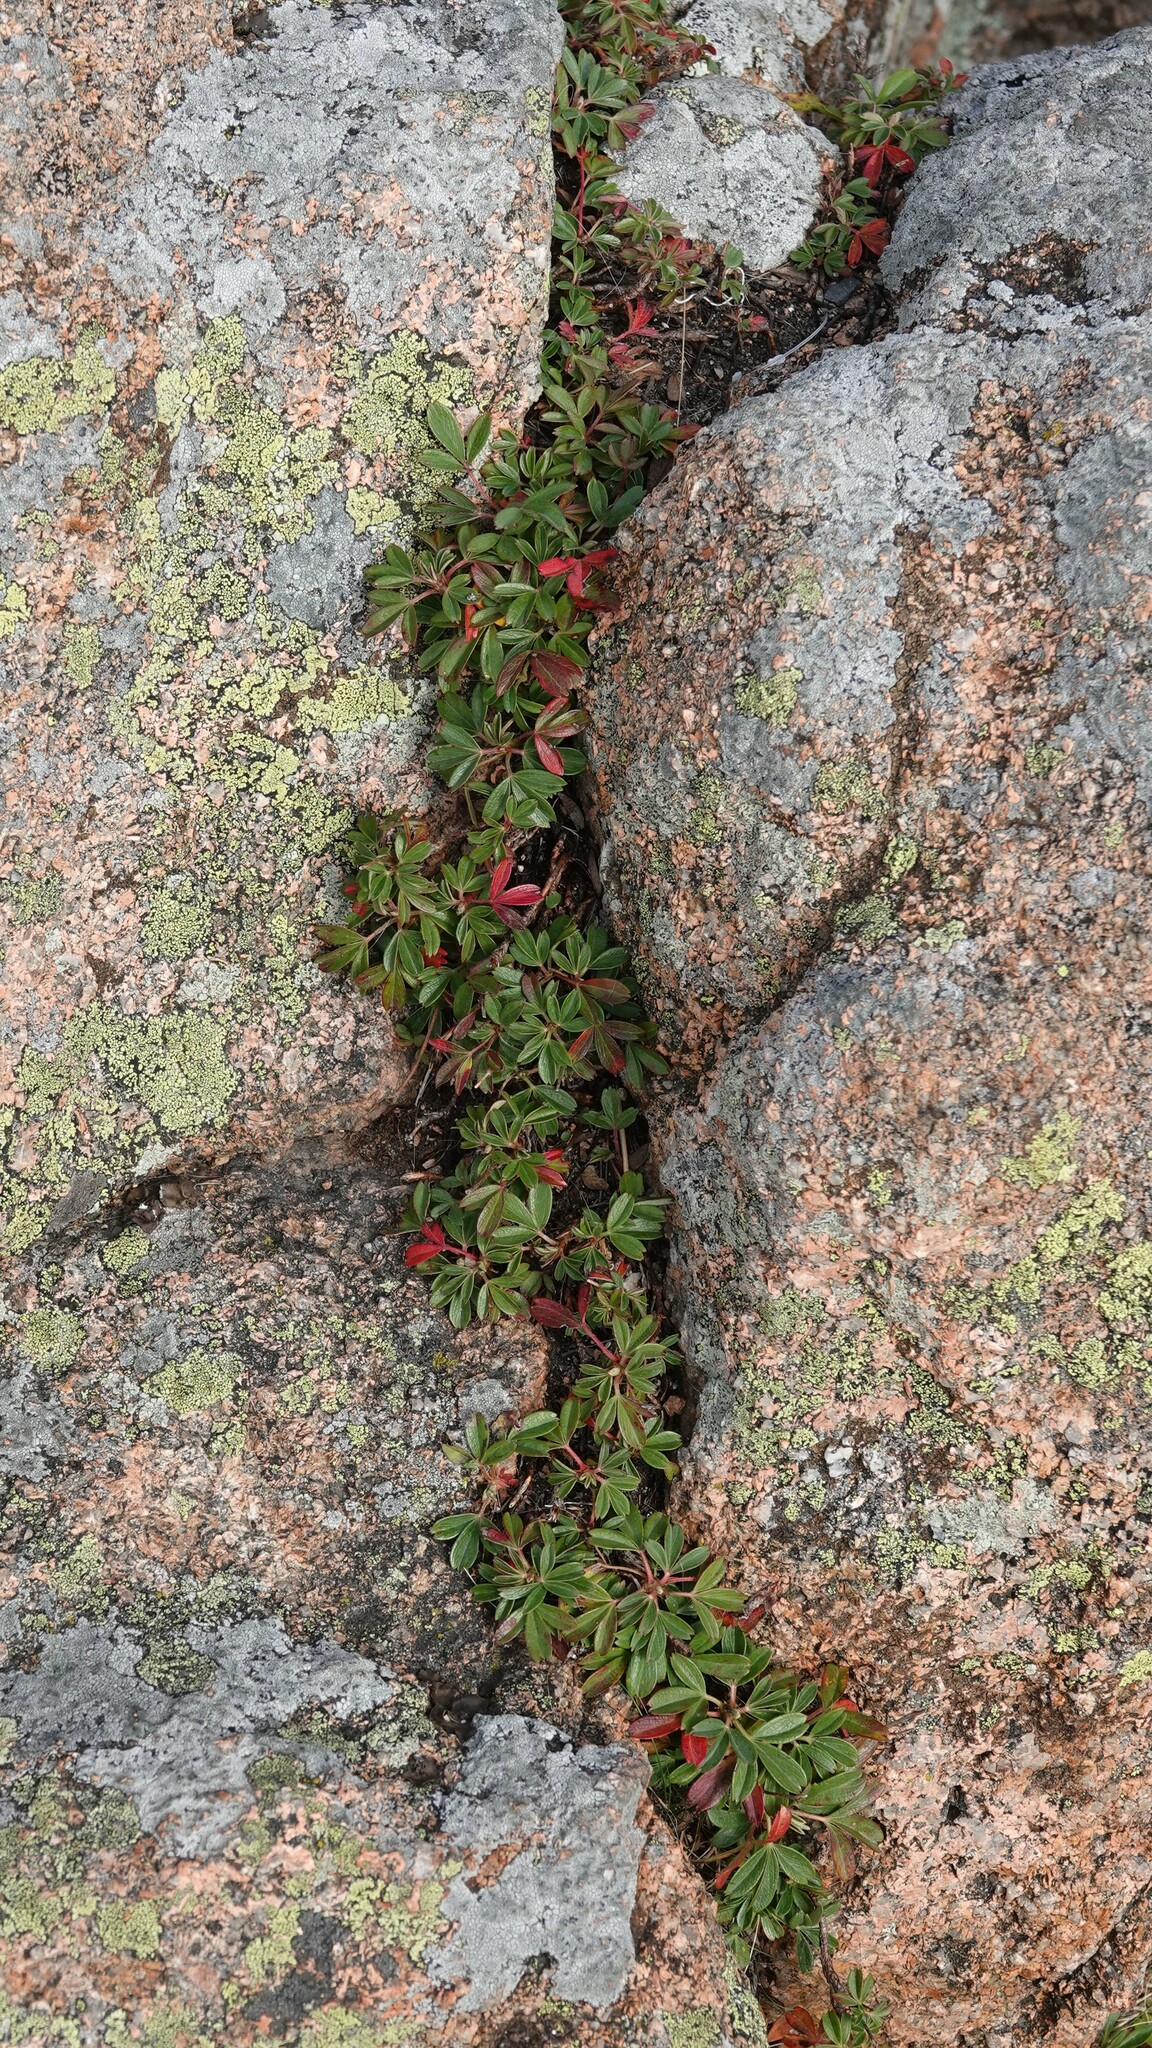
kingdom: Plantae
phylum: Tracheophyta
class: Magnoliopsida
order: Rosales
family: Rosaceae
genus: Sibbaldia
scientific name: Sibbaldia tridentata
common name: Three-toothed cinquefoil
